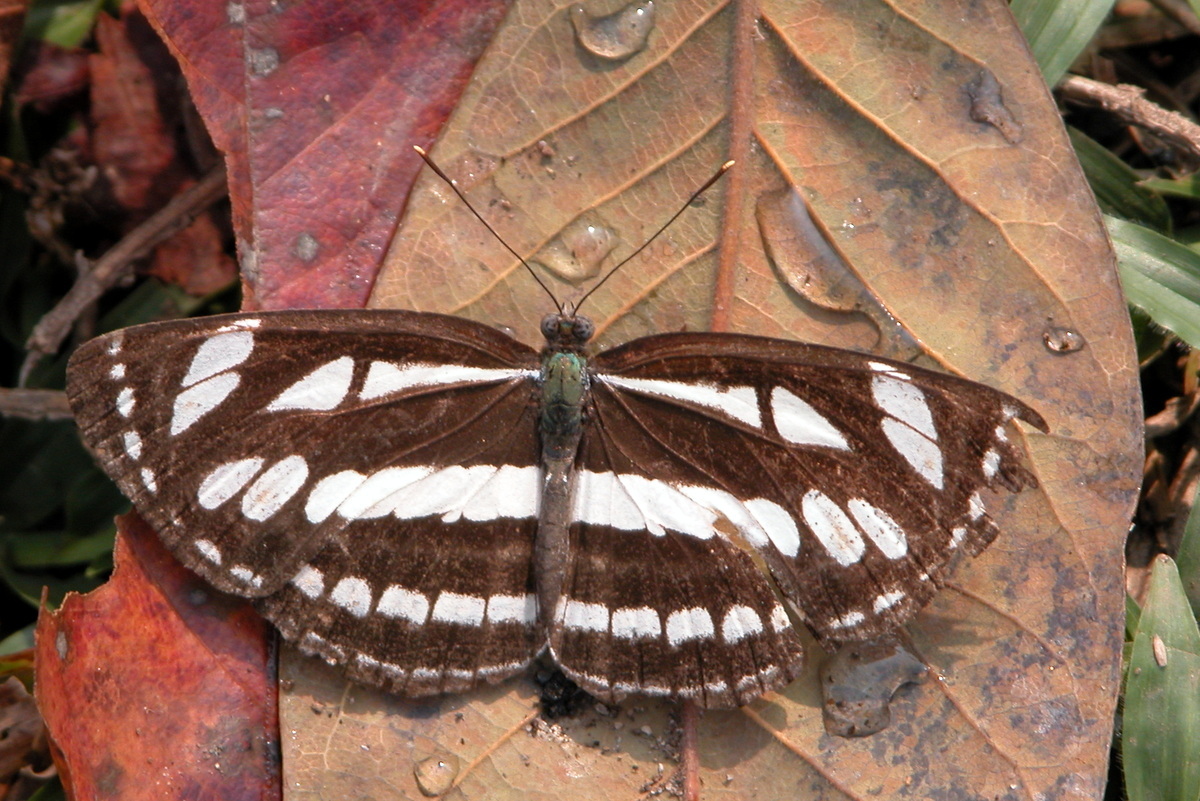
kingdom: Animalia
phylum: Arthropoda
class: Insecta
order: Lepidoptera
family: Nymphalidae
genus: Neptis
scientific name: Neptis hylas
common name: Common sailer
